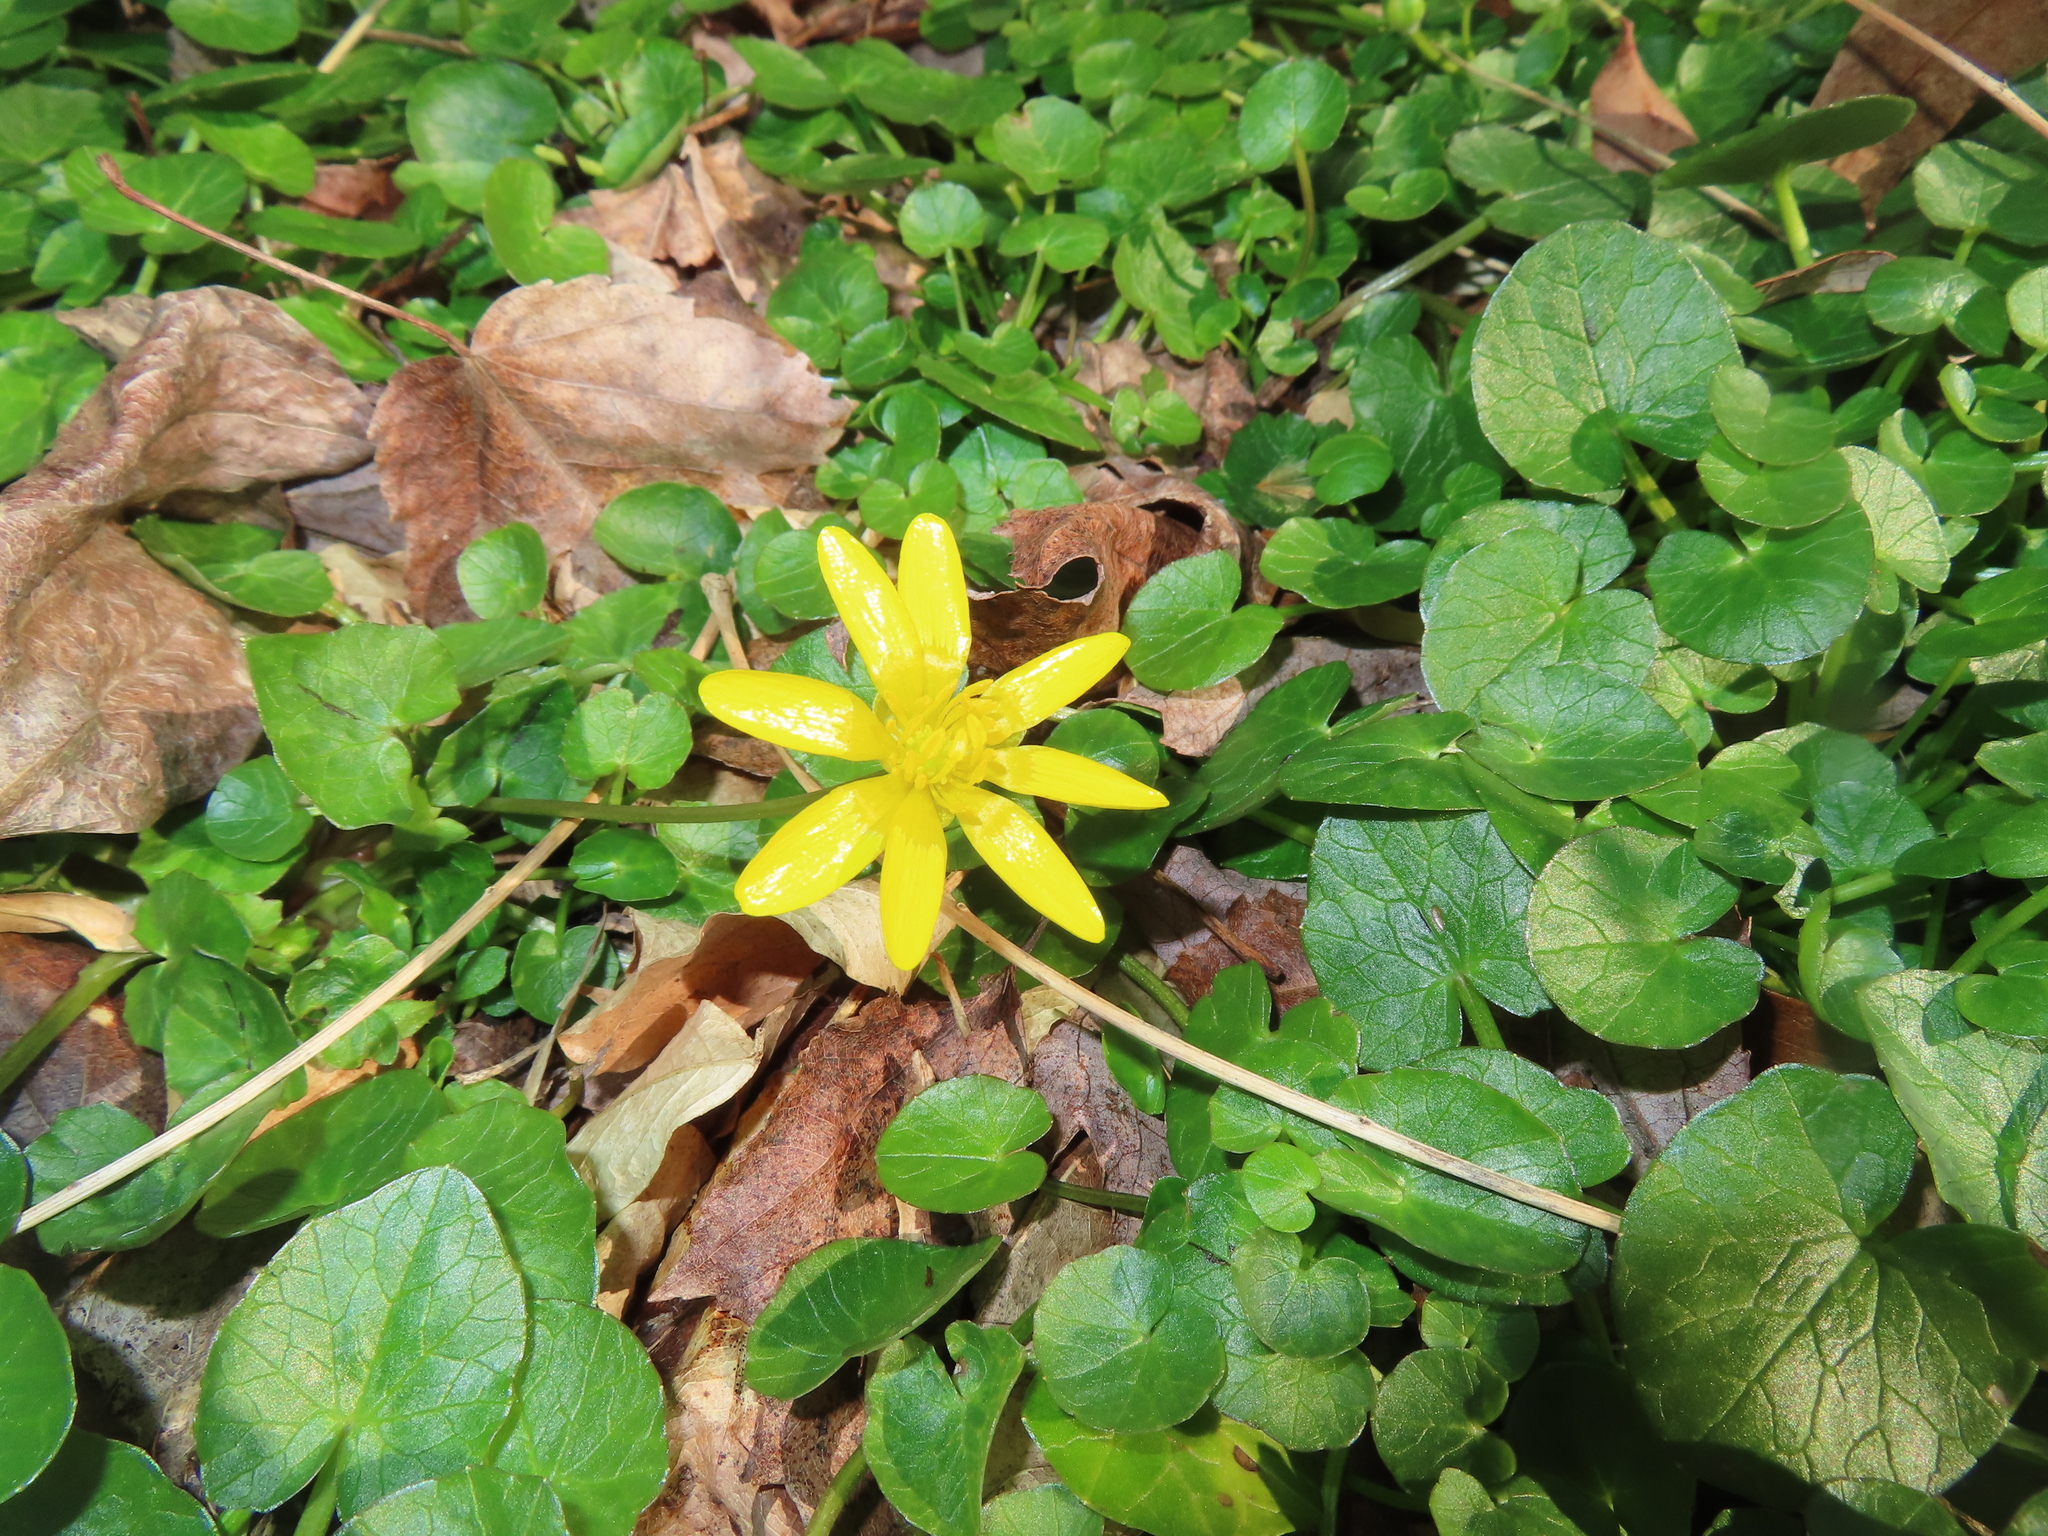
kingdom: Plantae
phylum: Tracheophyta
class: Magnoliopsida
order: Ranunculales
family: Ranunculaceae
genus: Ficaria
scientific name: Ficaria verna
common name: Lesser celandine
